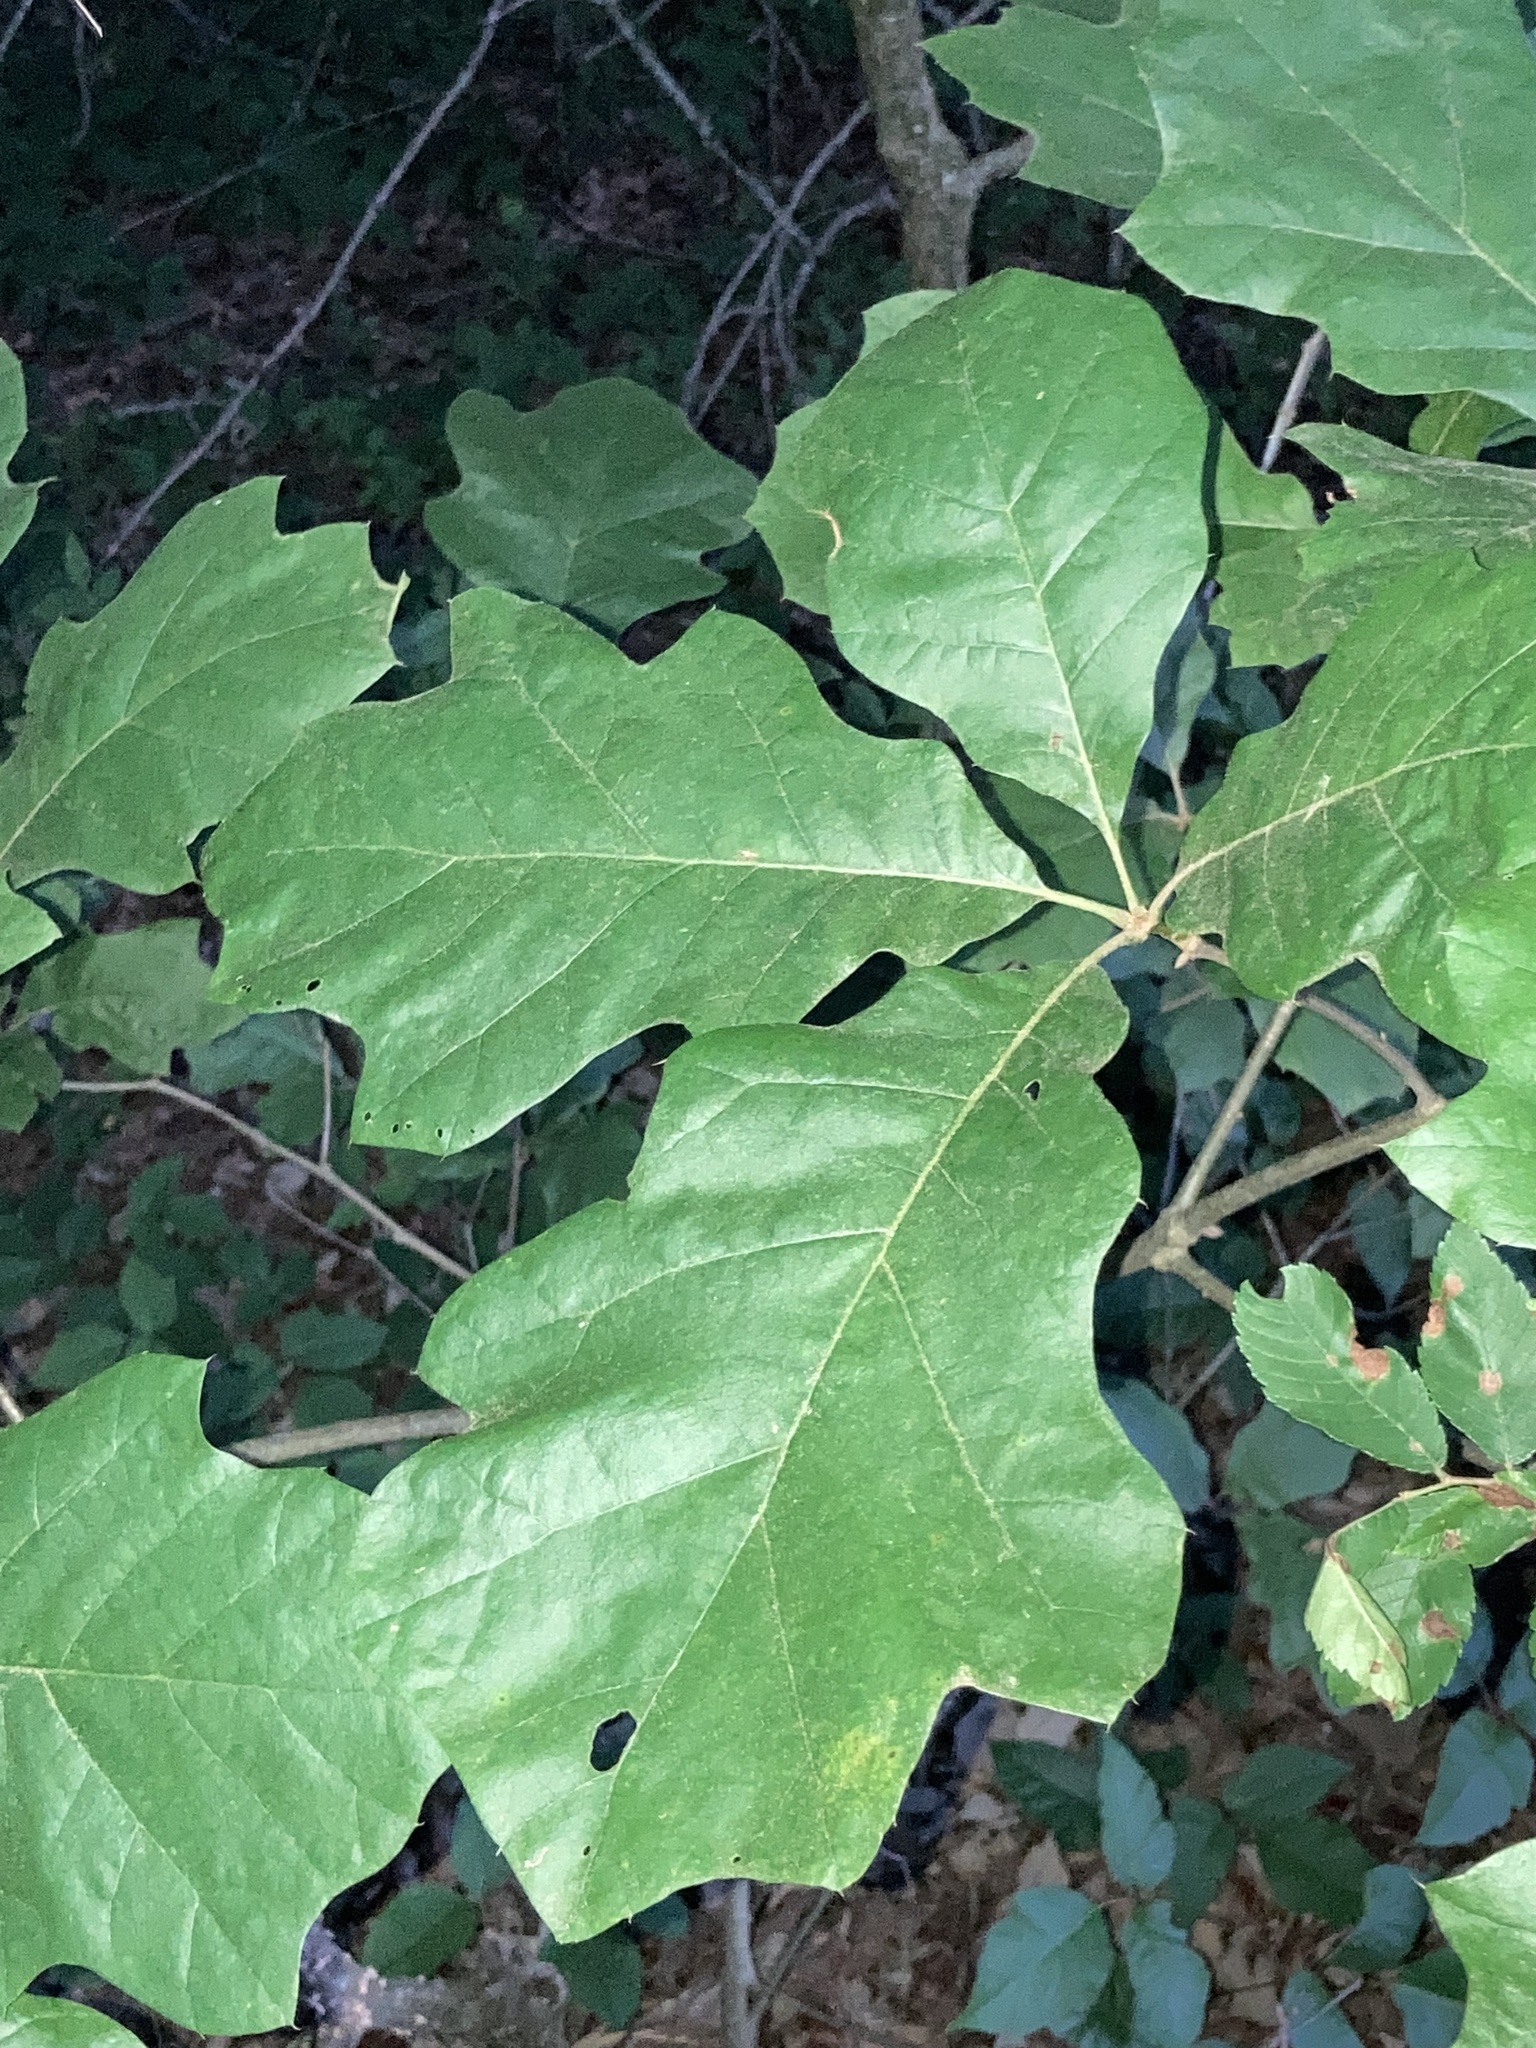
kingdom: Plantae
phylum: Tracheophyta
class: Magnoliopsida
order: Fagales
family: Fagaceae
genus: Quercus
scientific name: Quercus velutina
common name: Black oak
